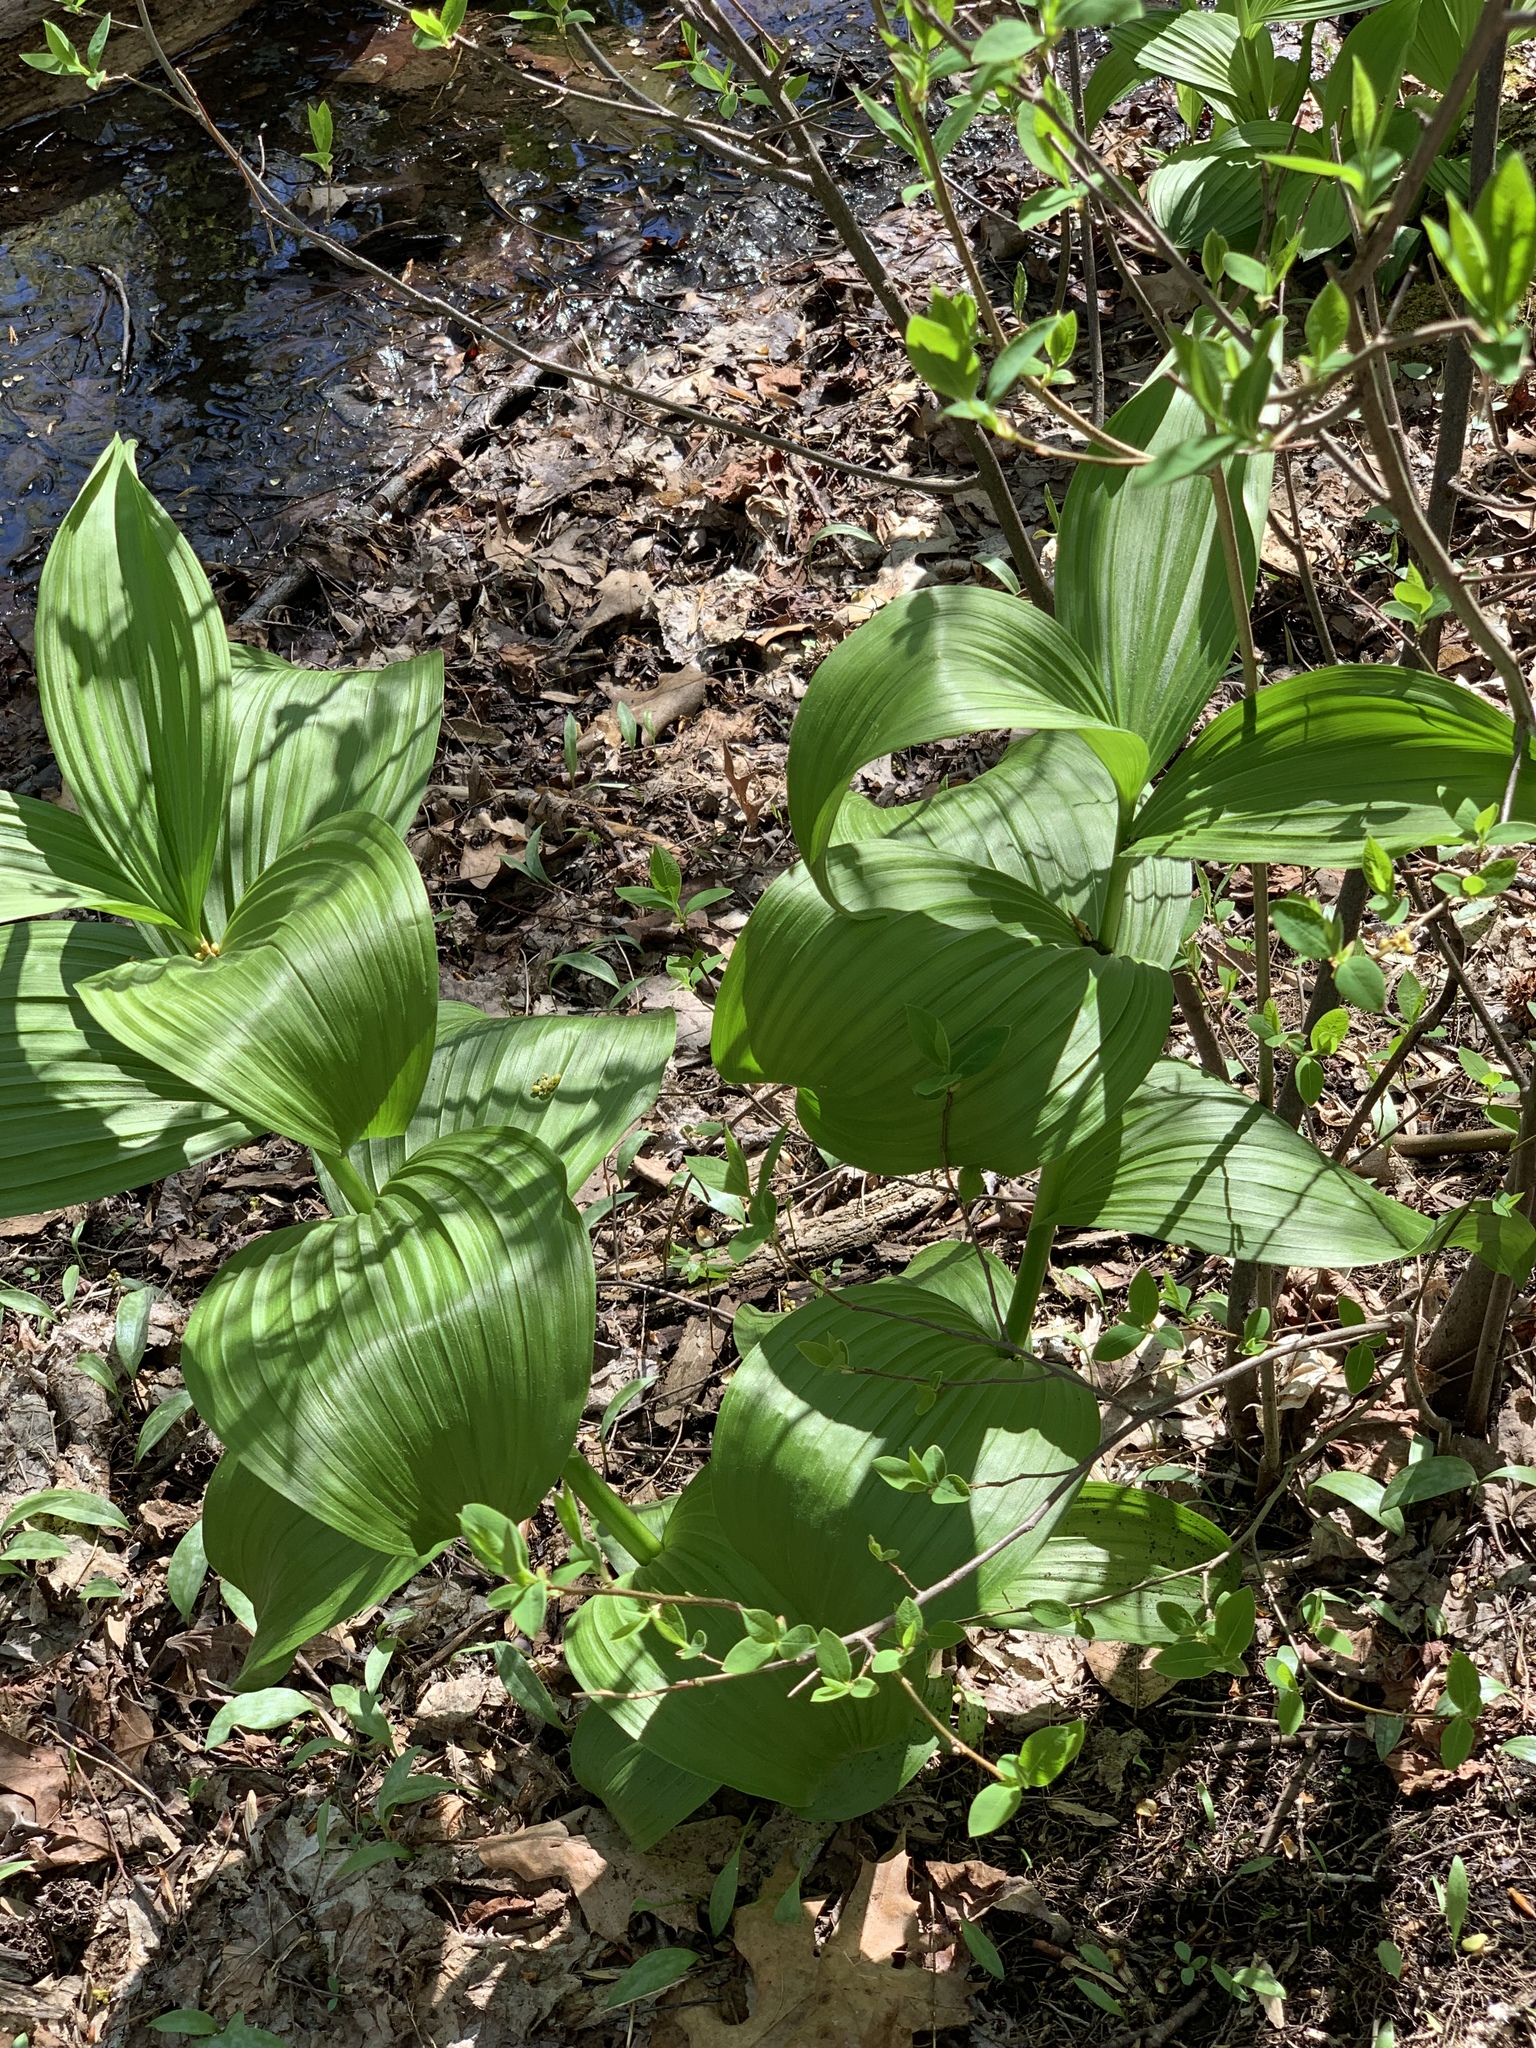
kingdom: Plantae
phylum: Tracheophyta
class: Liliopsida
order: Liliales
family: Melanthiaceae
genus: Veratrum
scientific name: Veratrum viride
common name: American false hellebore
